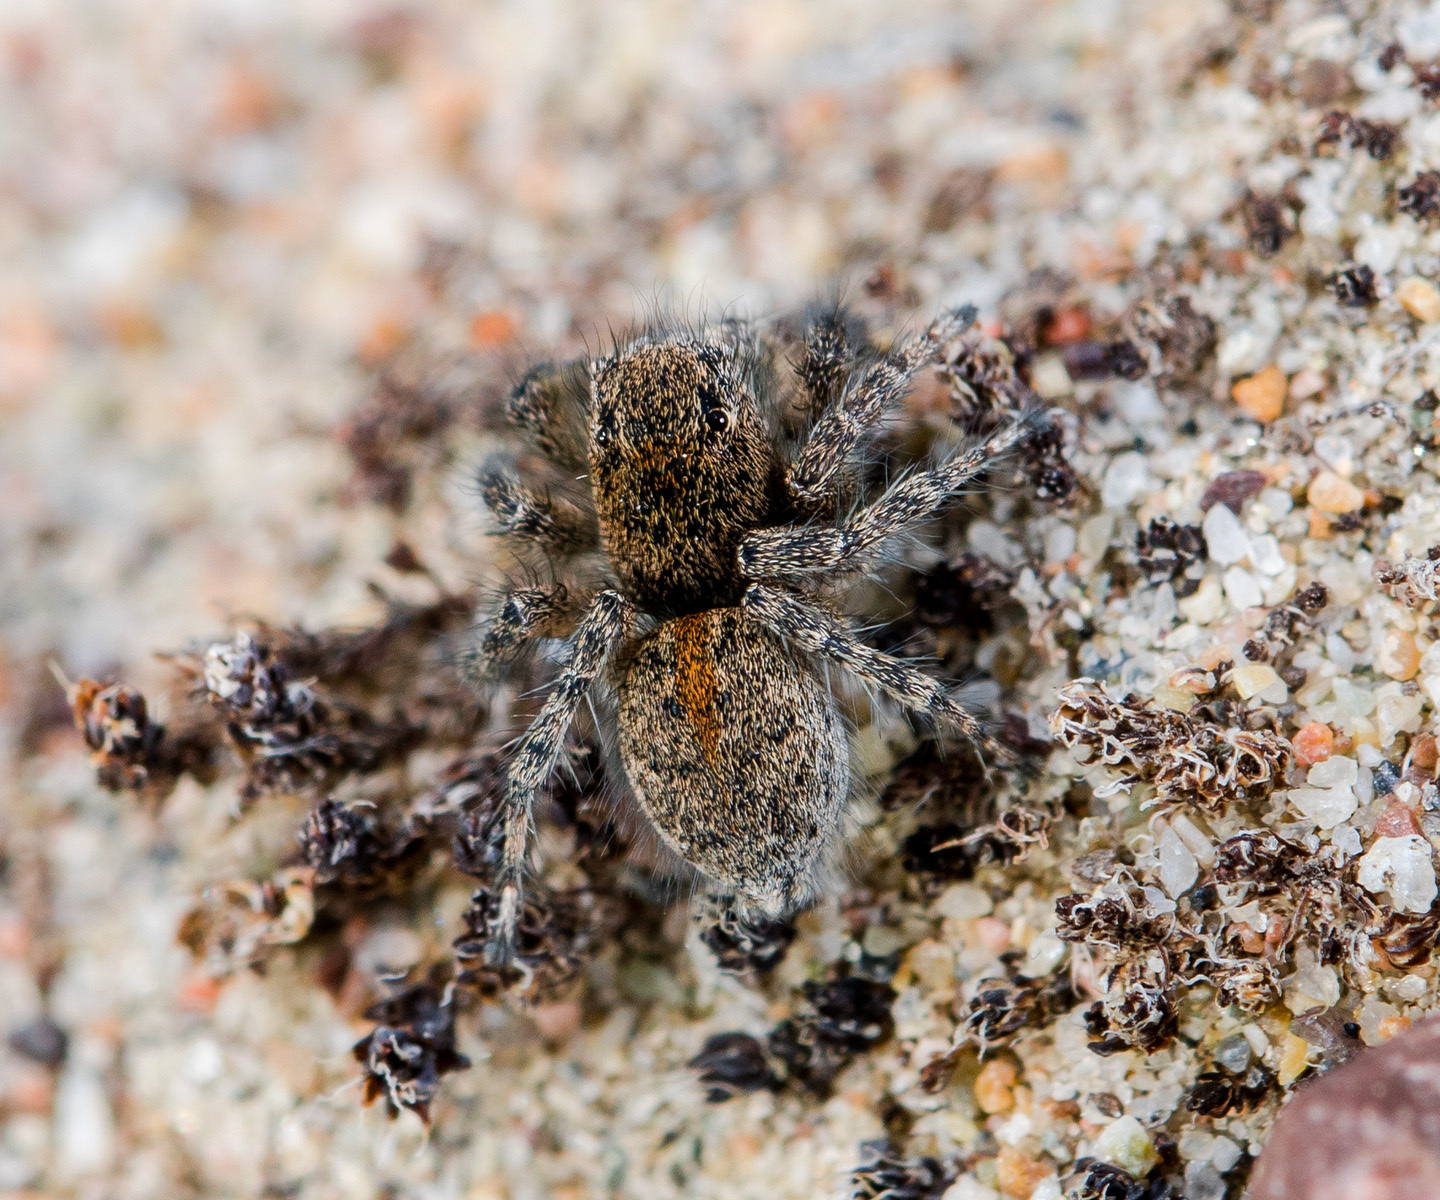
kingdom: Animalia
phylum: Arthropoda
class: Arachnida
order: Araneae
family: Salticidae
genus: Aelurillus
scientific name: Aelurillus dubatolovi
